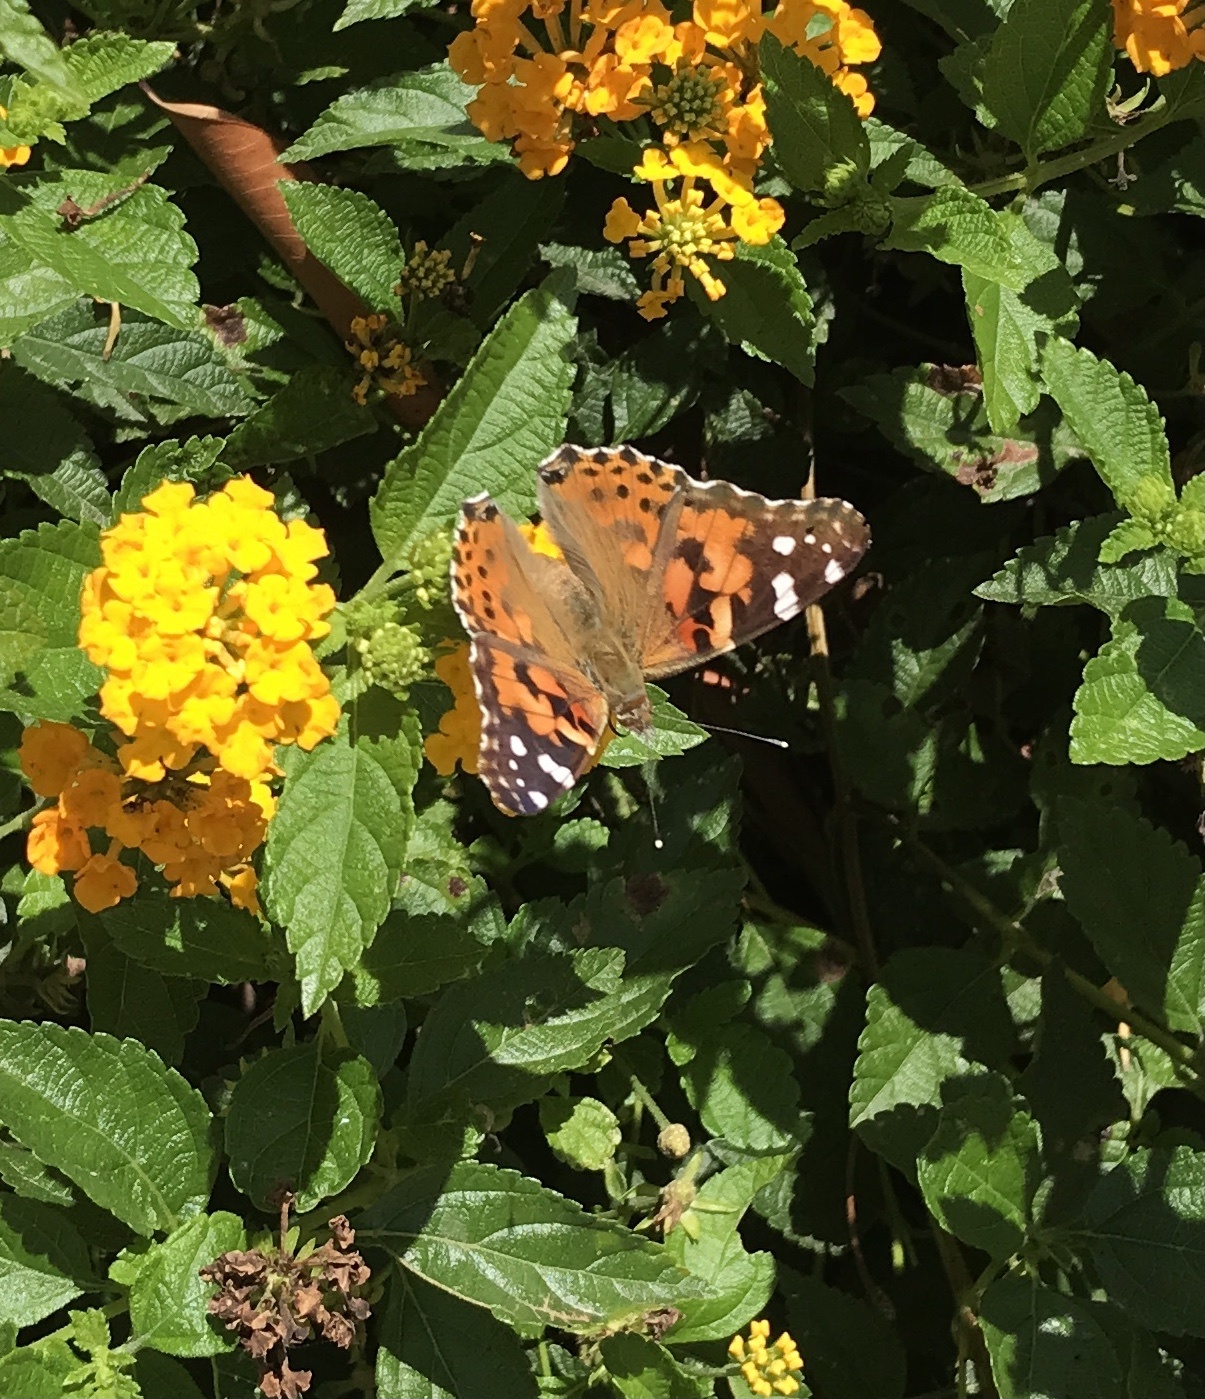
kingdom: Animalia
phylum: Arthropoda
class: Insecta
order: Lepidoptera
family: Nymphalidae
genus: Vanessa
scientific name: Vanessa cardui
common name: Painted lady
